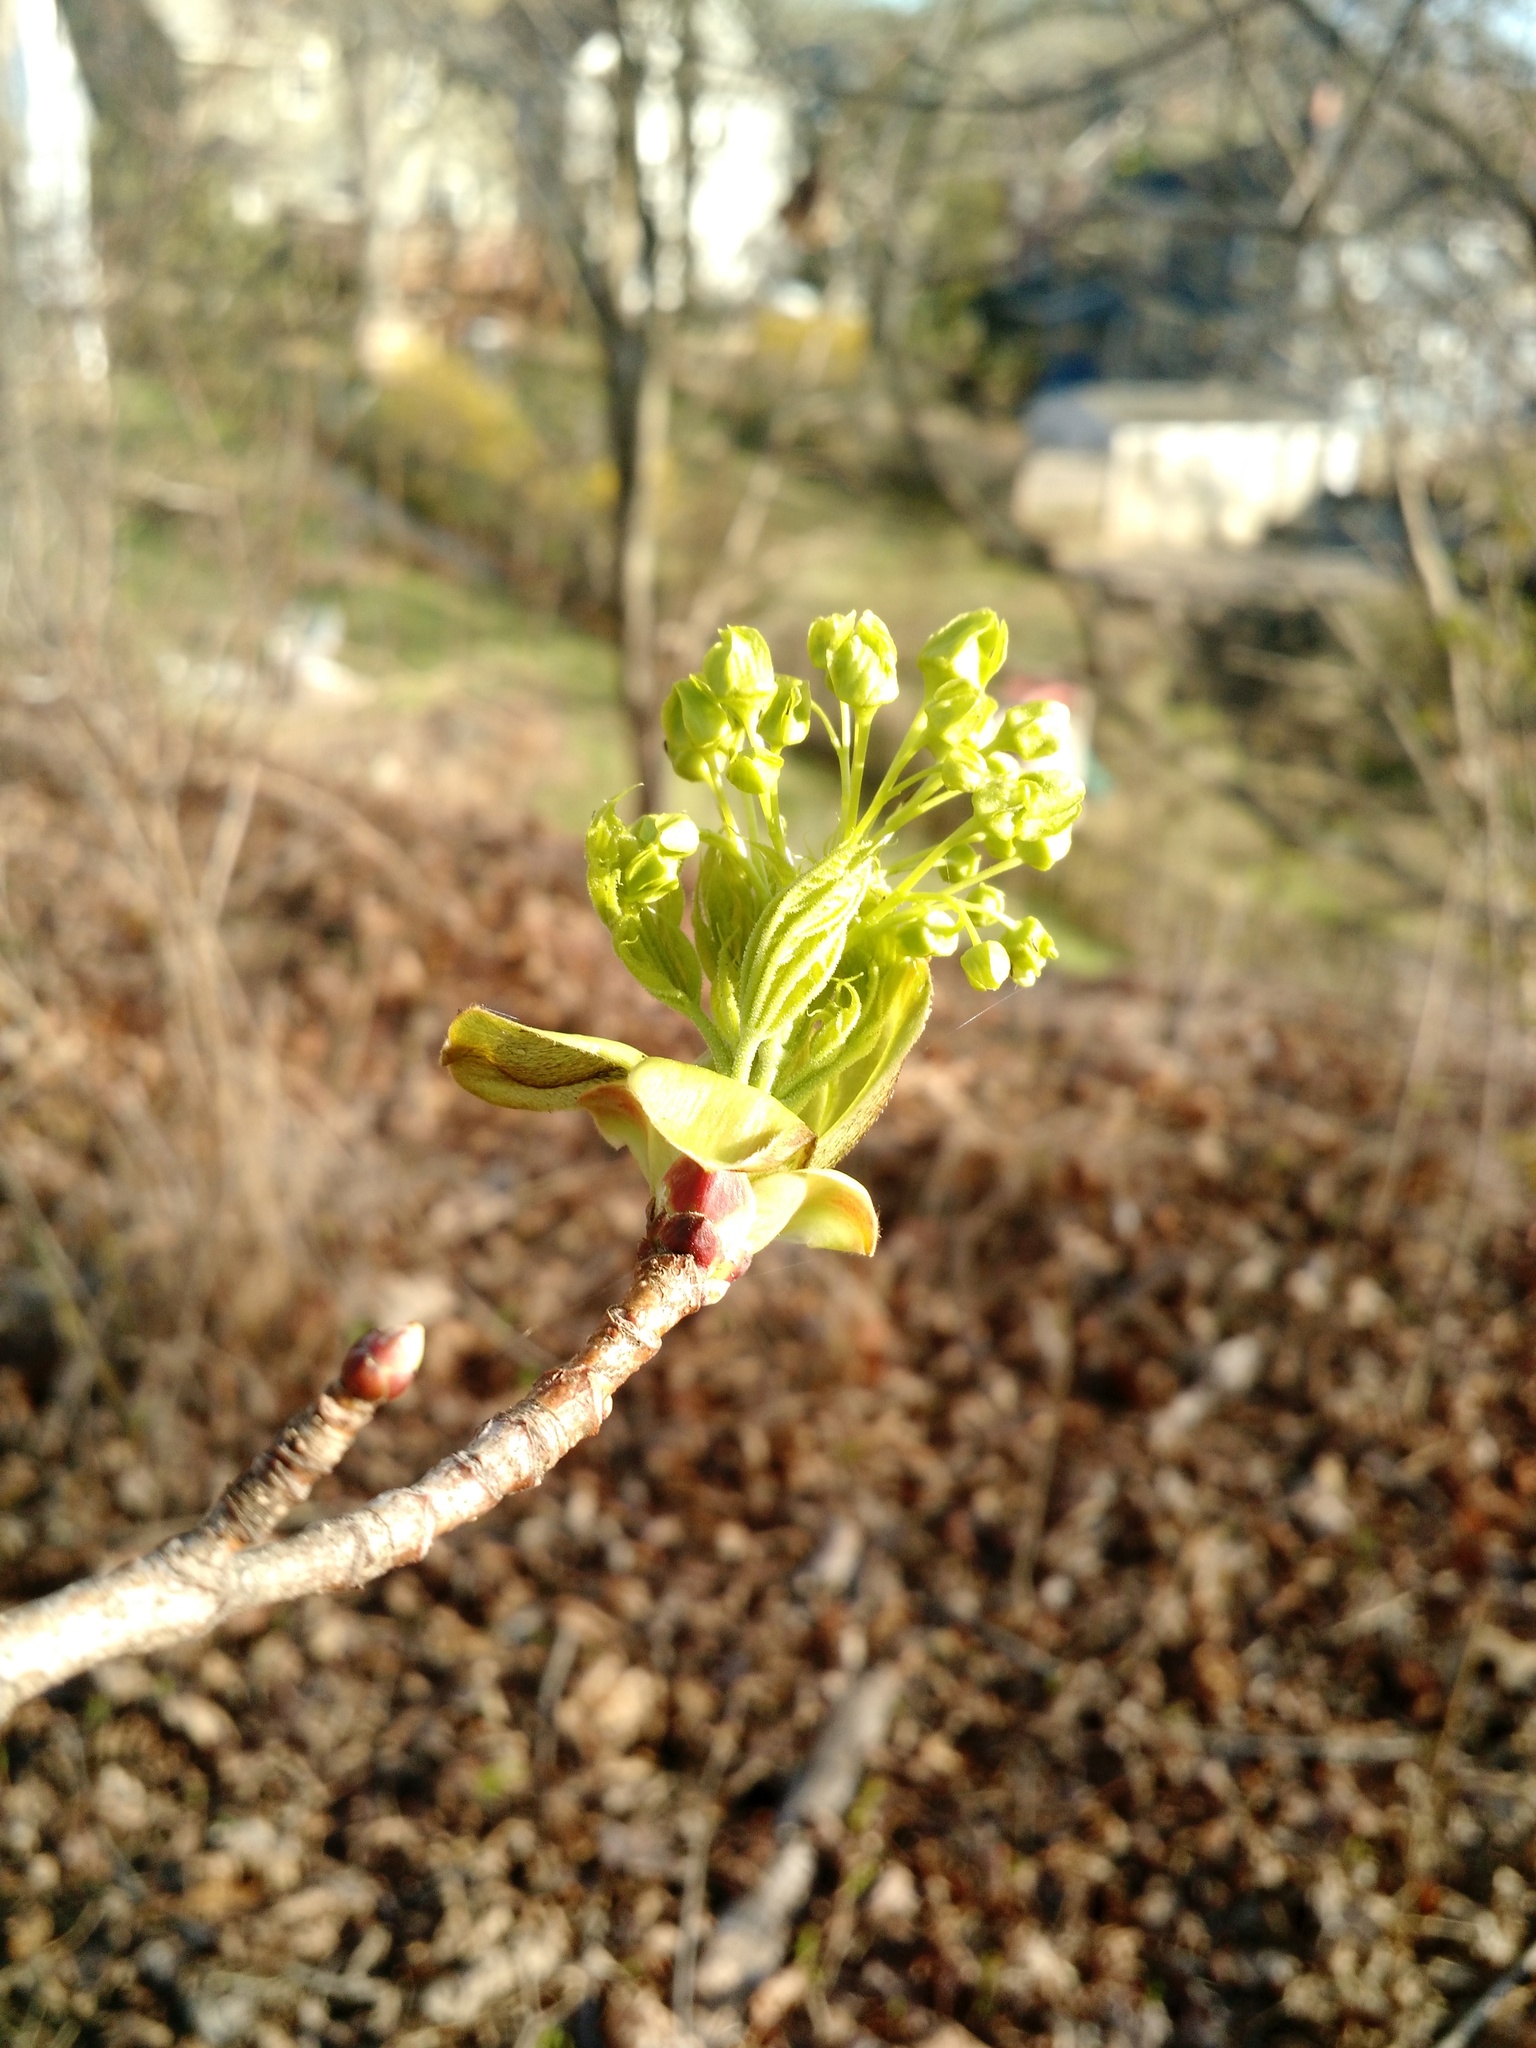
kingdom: Plantae
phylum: Tracheophyta
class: Magnoliopsida
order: Sapindales
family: Sapindaceae
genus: Acer
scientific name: Acer platanoides
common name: Norway maple
